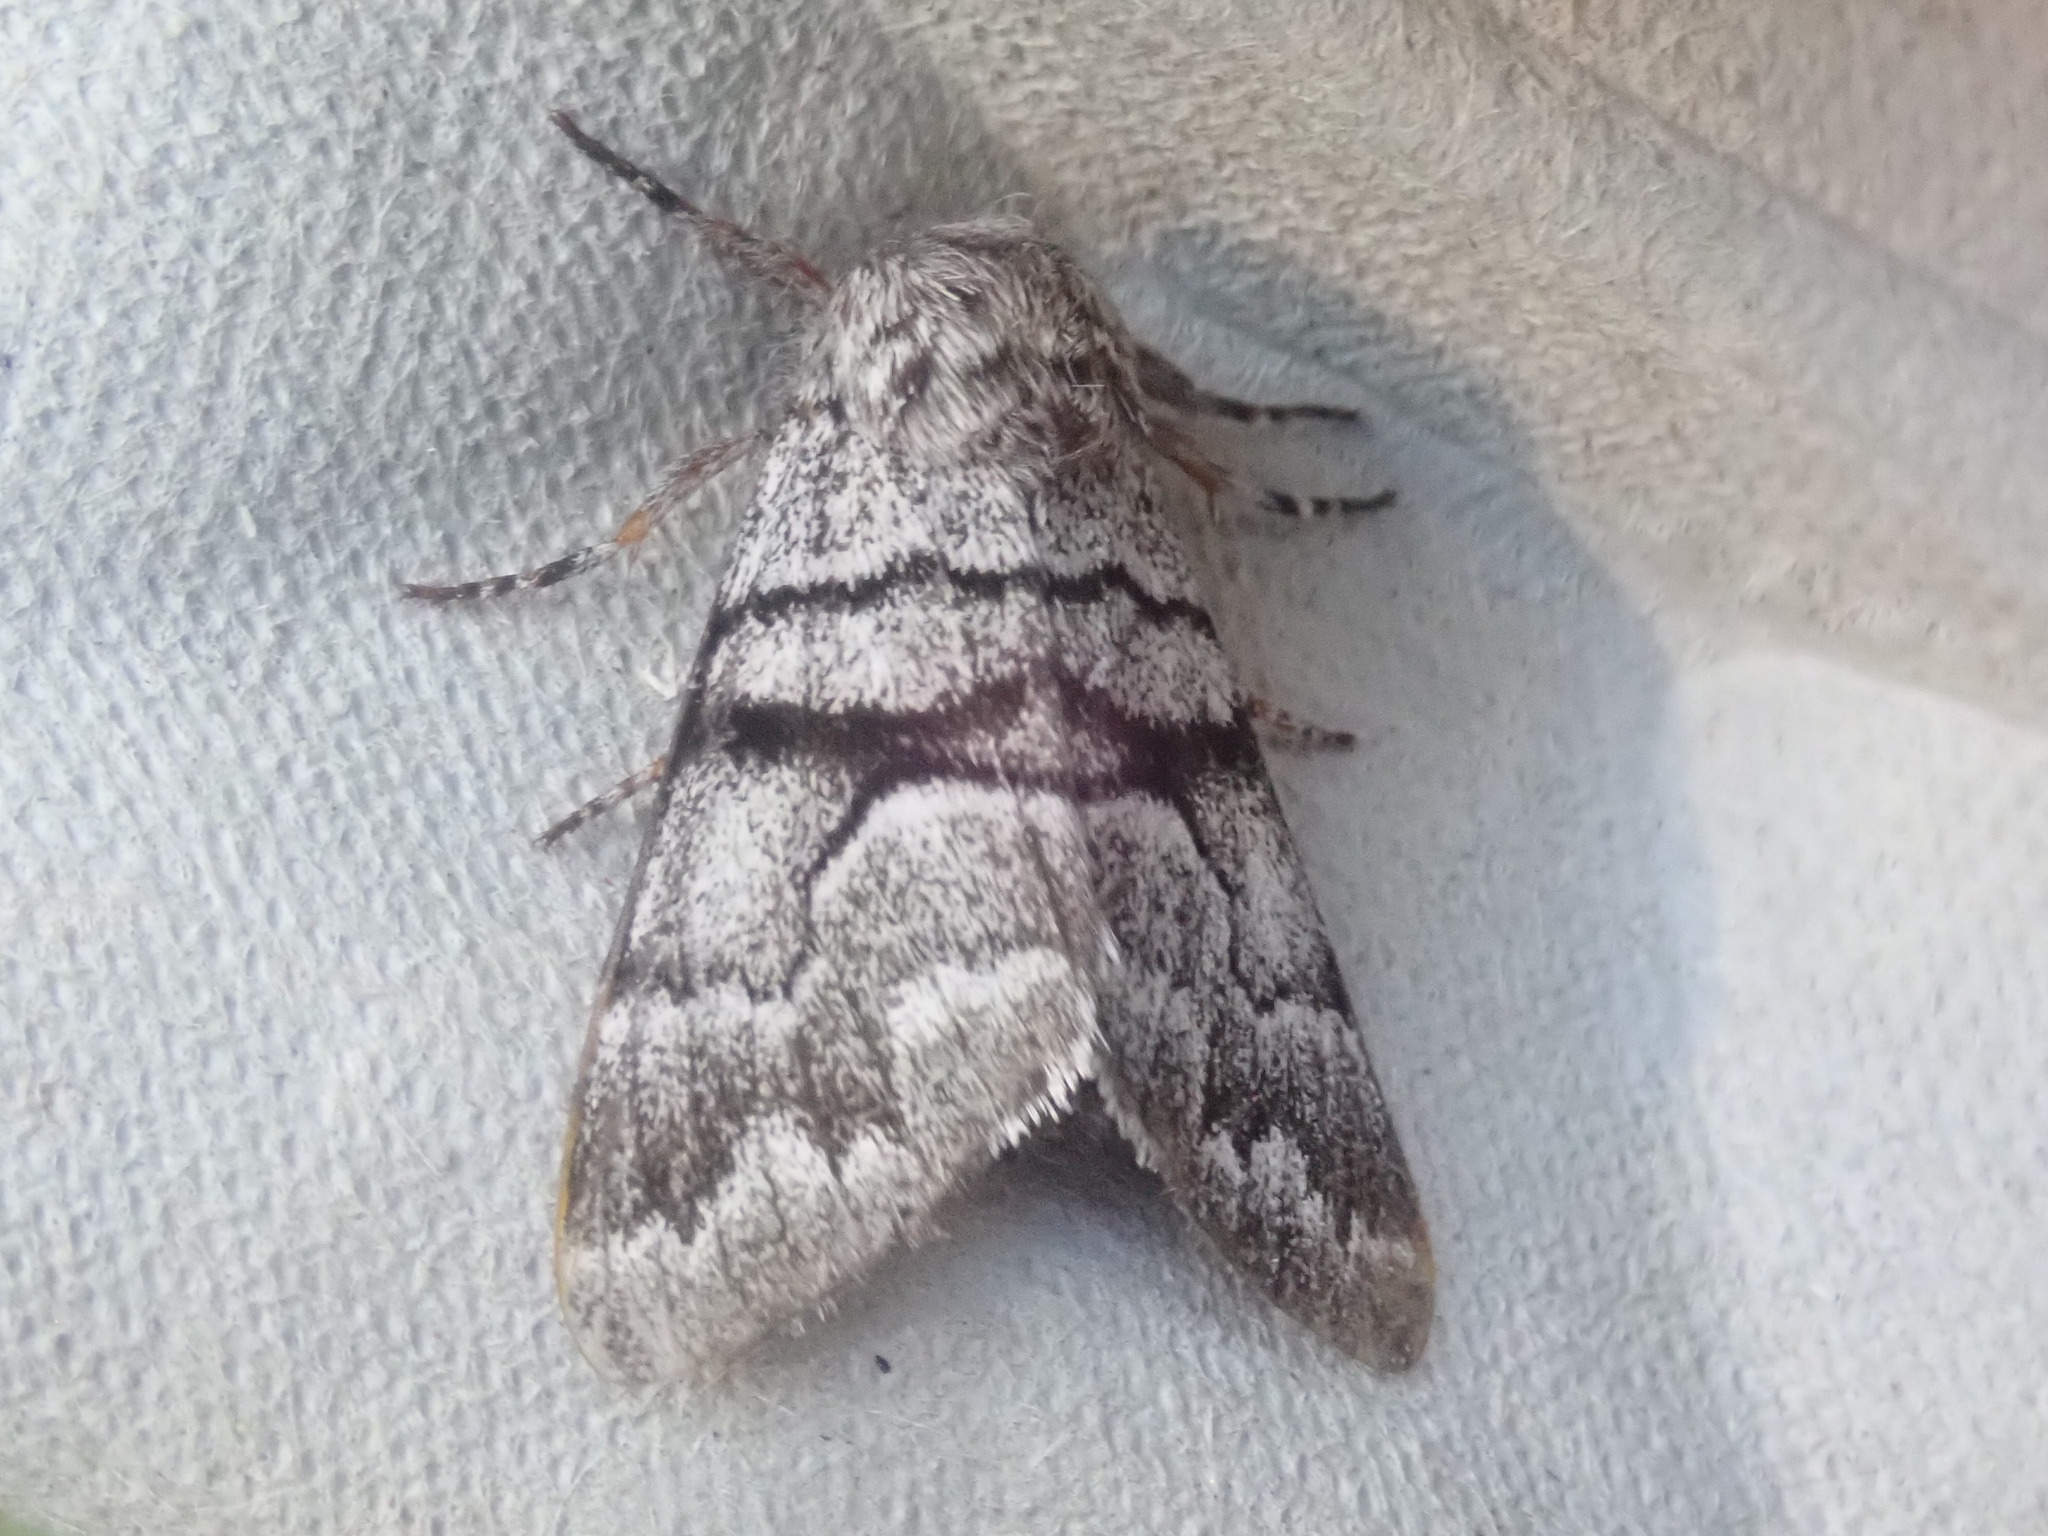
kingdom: Animalia
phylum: Arthropoda
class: Insecta
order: Lepidoptera
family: Noctuidae
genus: Panthea
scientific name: Panthea furcilla
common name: Eastern panthea moth
